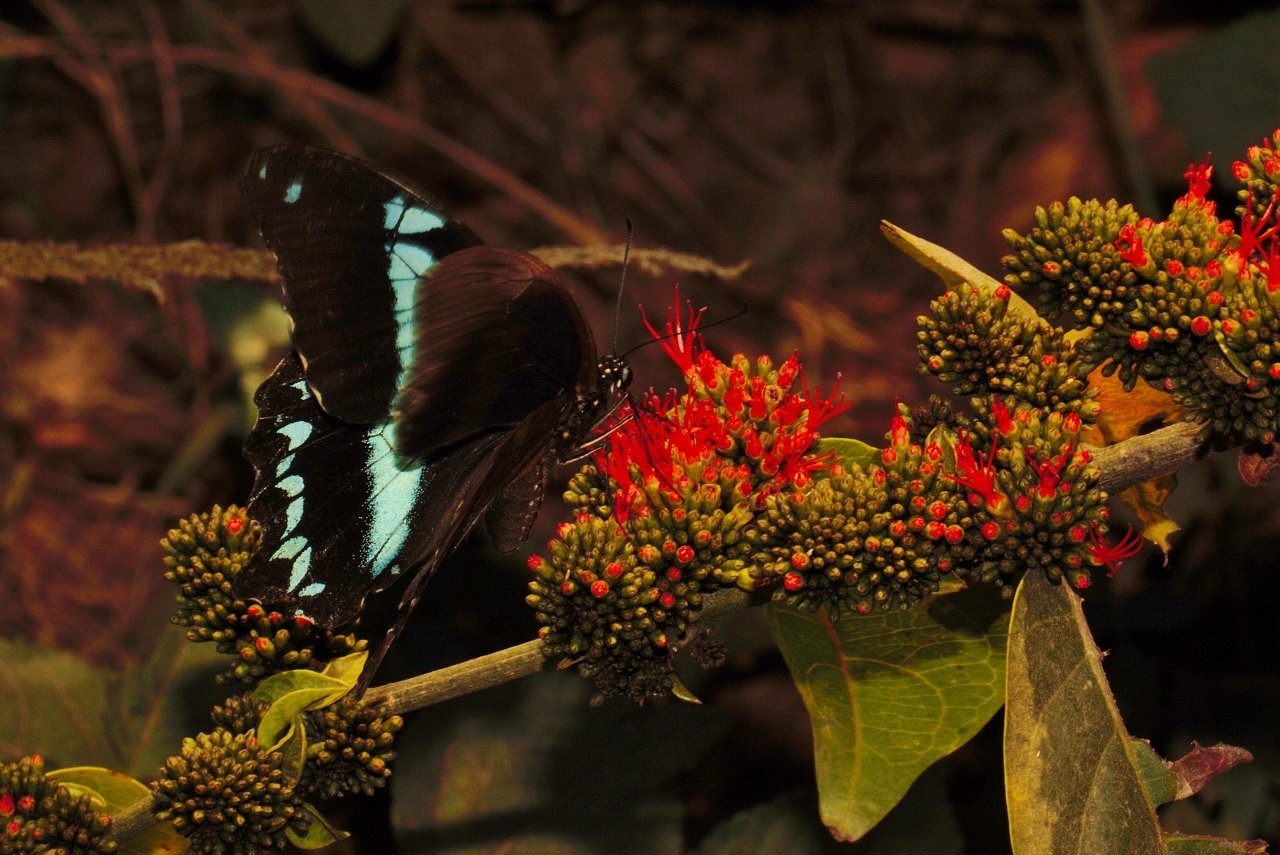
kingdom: Animalia
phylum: Arthropoda
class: Insecta
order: Lepidoptera
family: Papilionidae
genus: Papilio
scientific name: Papilio nireus
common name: Greenbanded swallowtail
